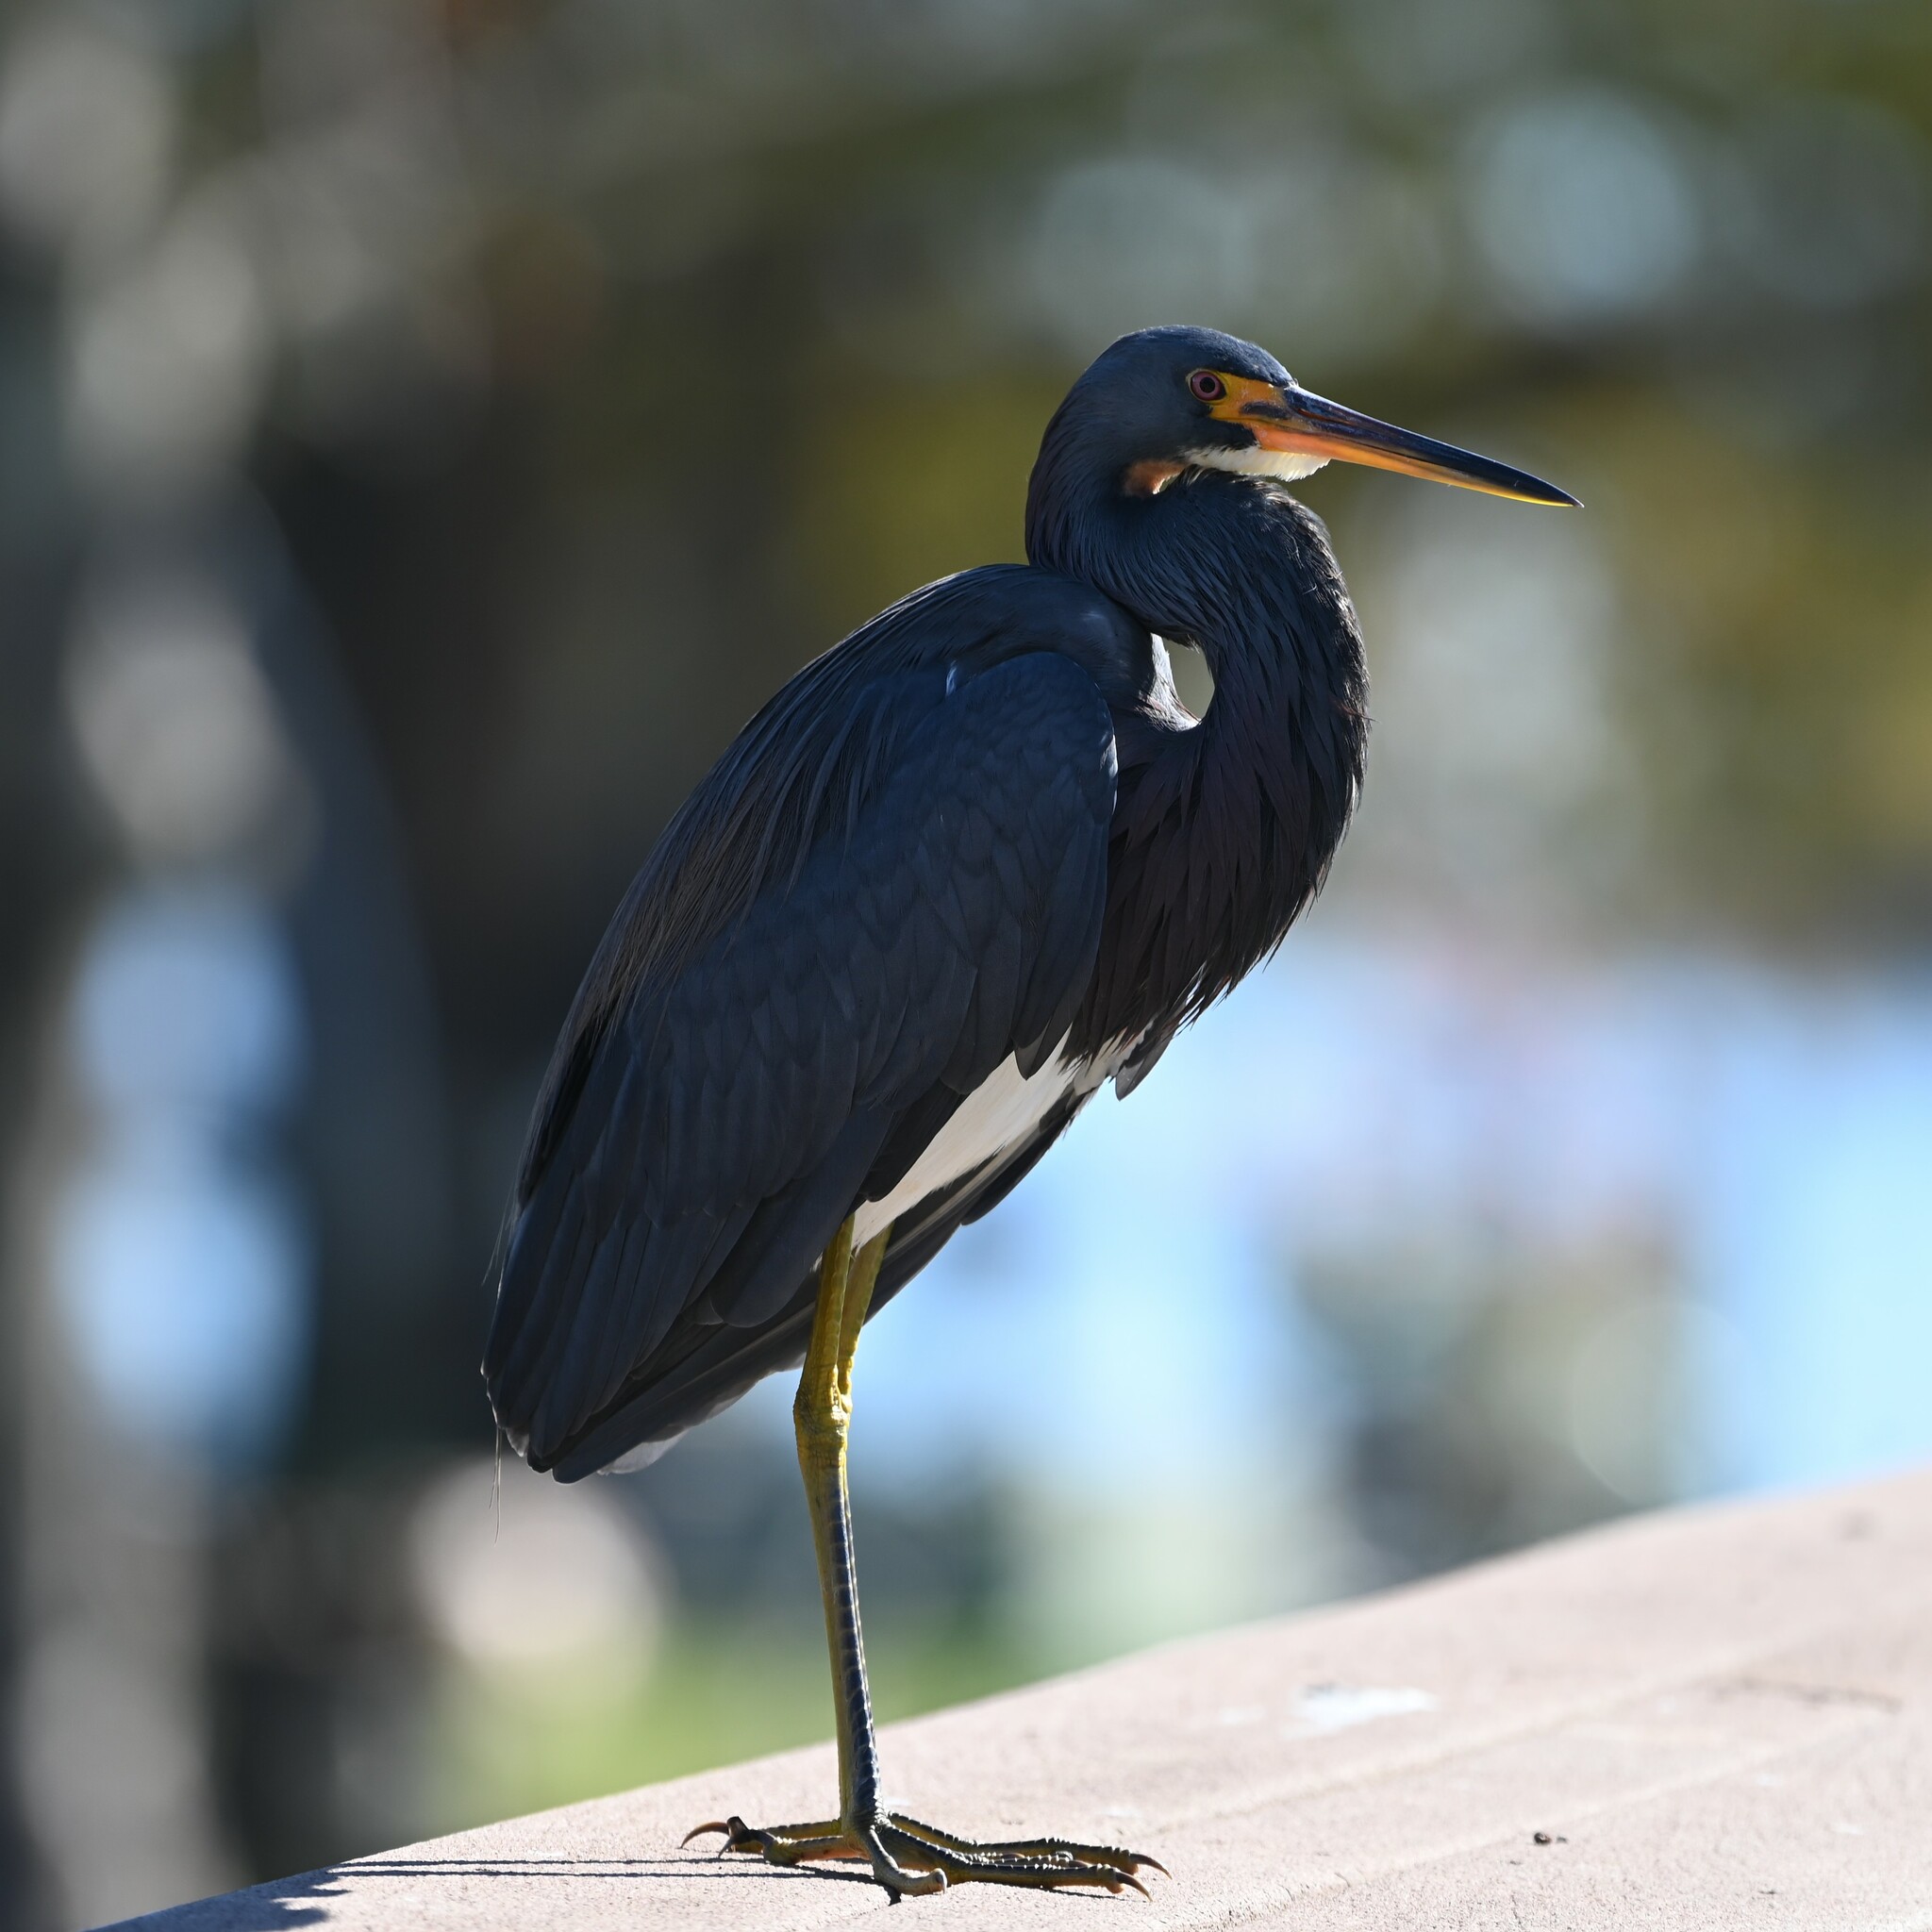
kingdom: Animalia
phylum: Chordata
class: Aves
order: Pelecaniformes
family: Ardeidae
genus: Egretta
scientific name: Egretta tricolor
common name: Tricolored heron
